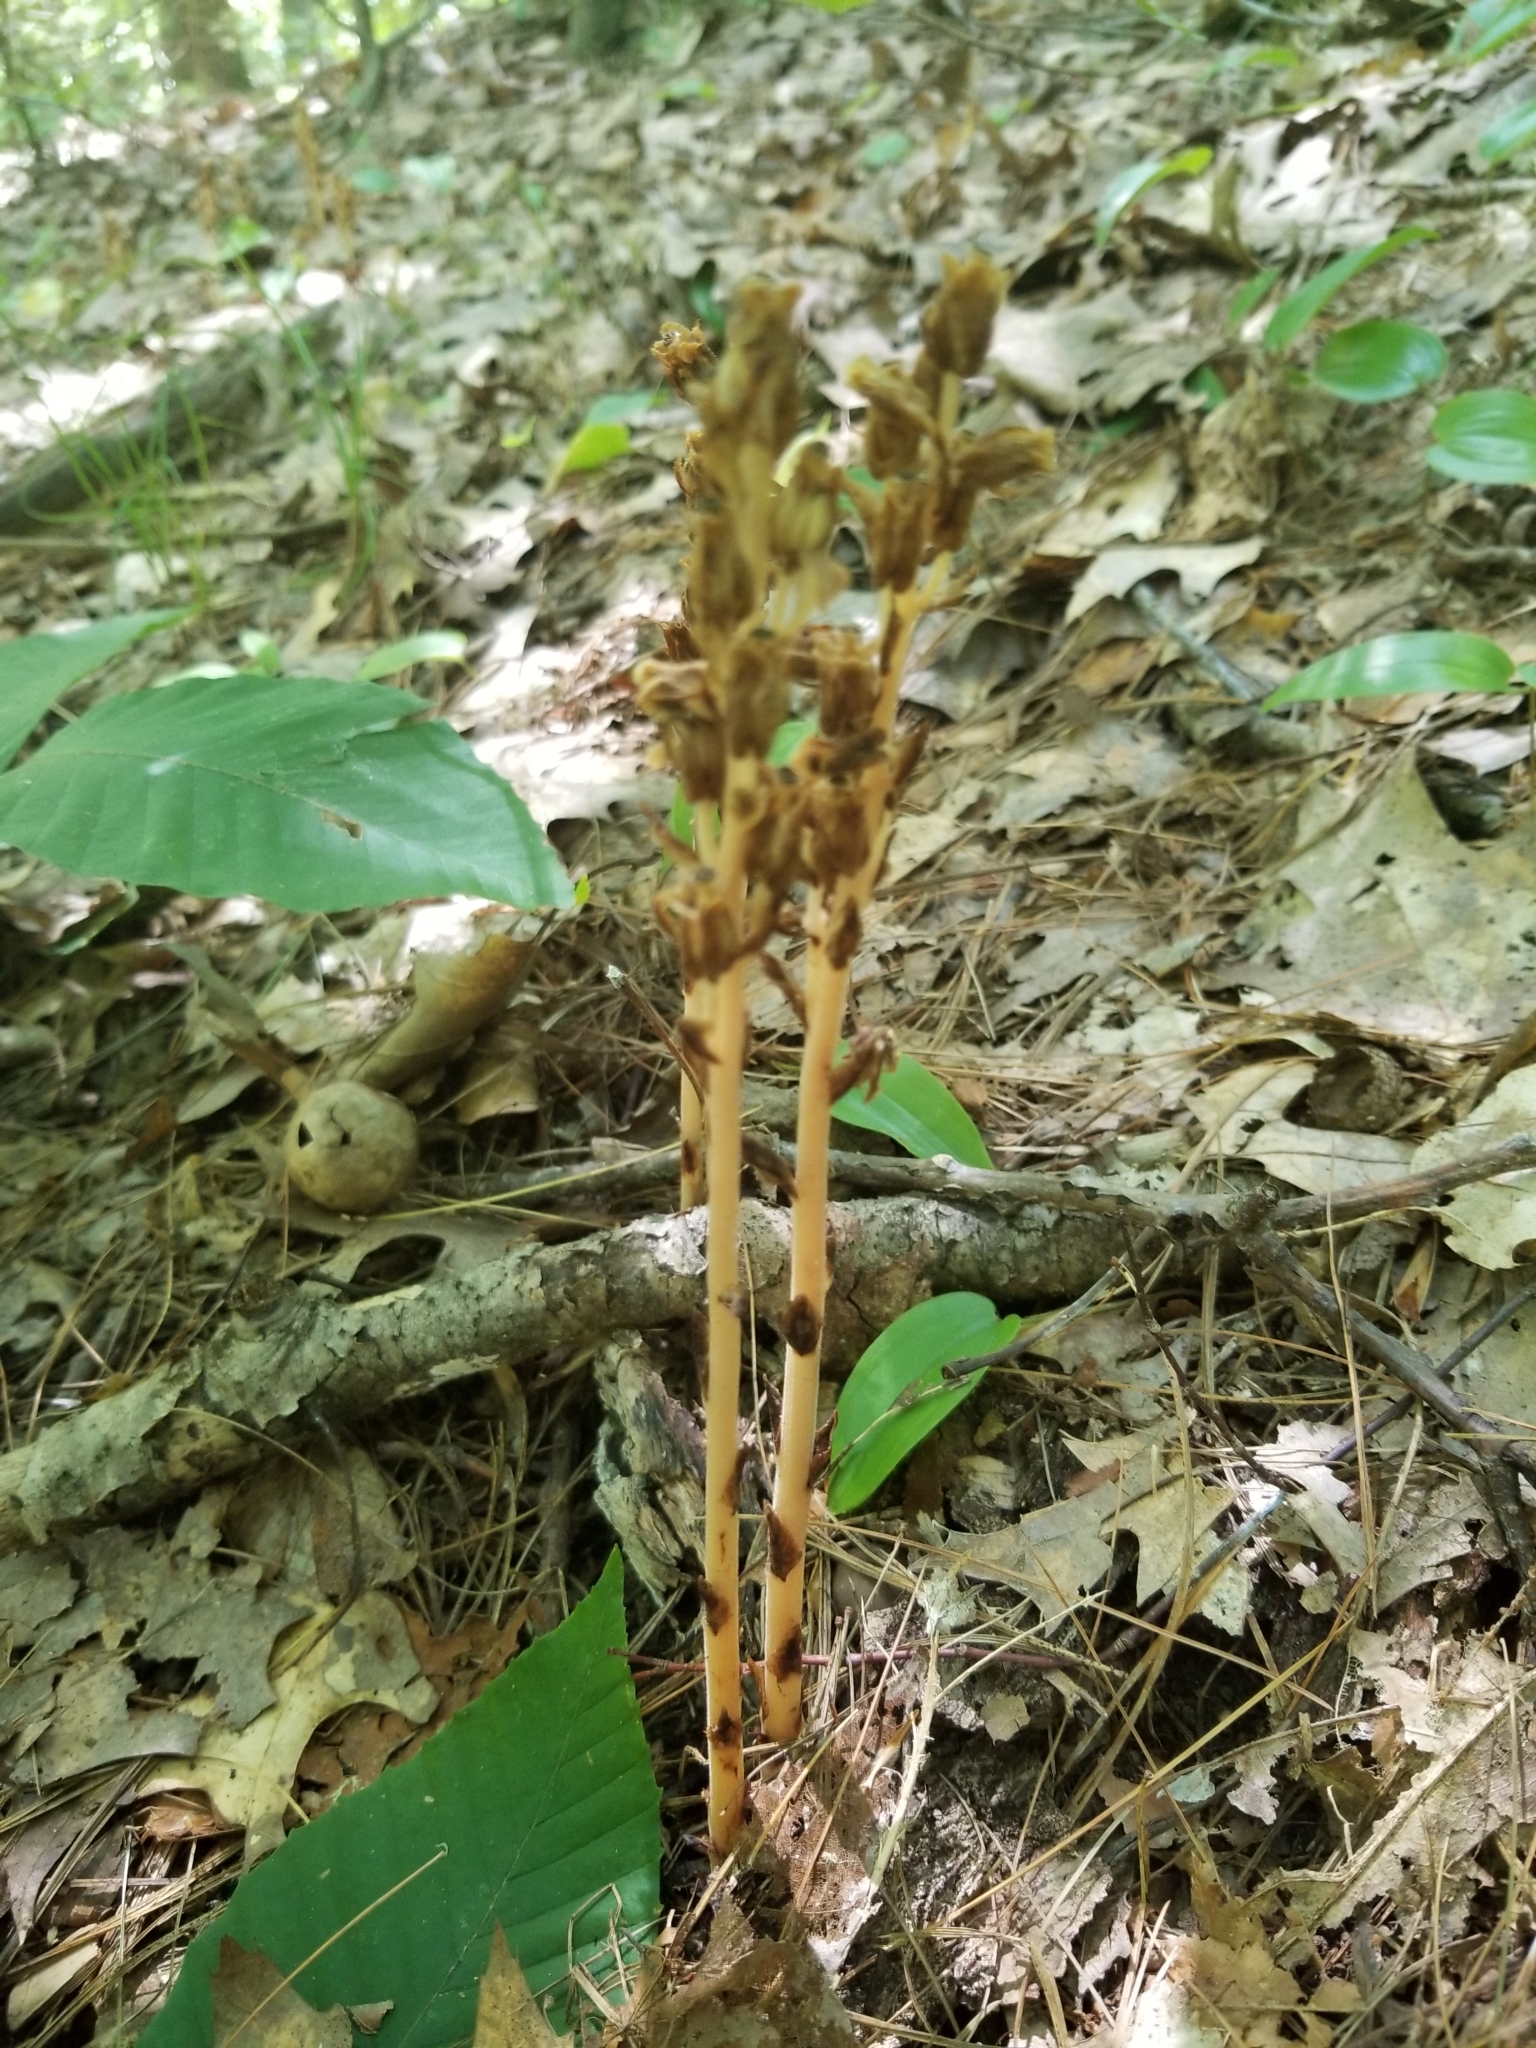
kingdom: Plantae
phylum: Tracheophyta
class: Magnoliopsida
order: Ericales
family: Ericaceae
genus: Hypopitys
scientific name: Hypopitys monotropa
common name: Yellow bird's-nest
